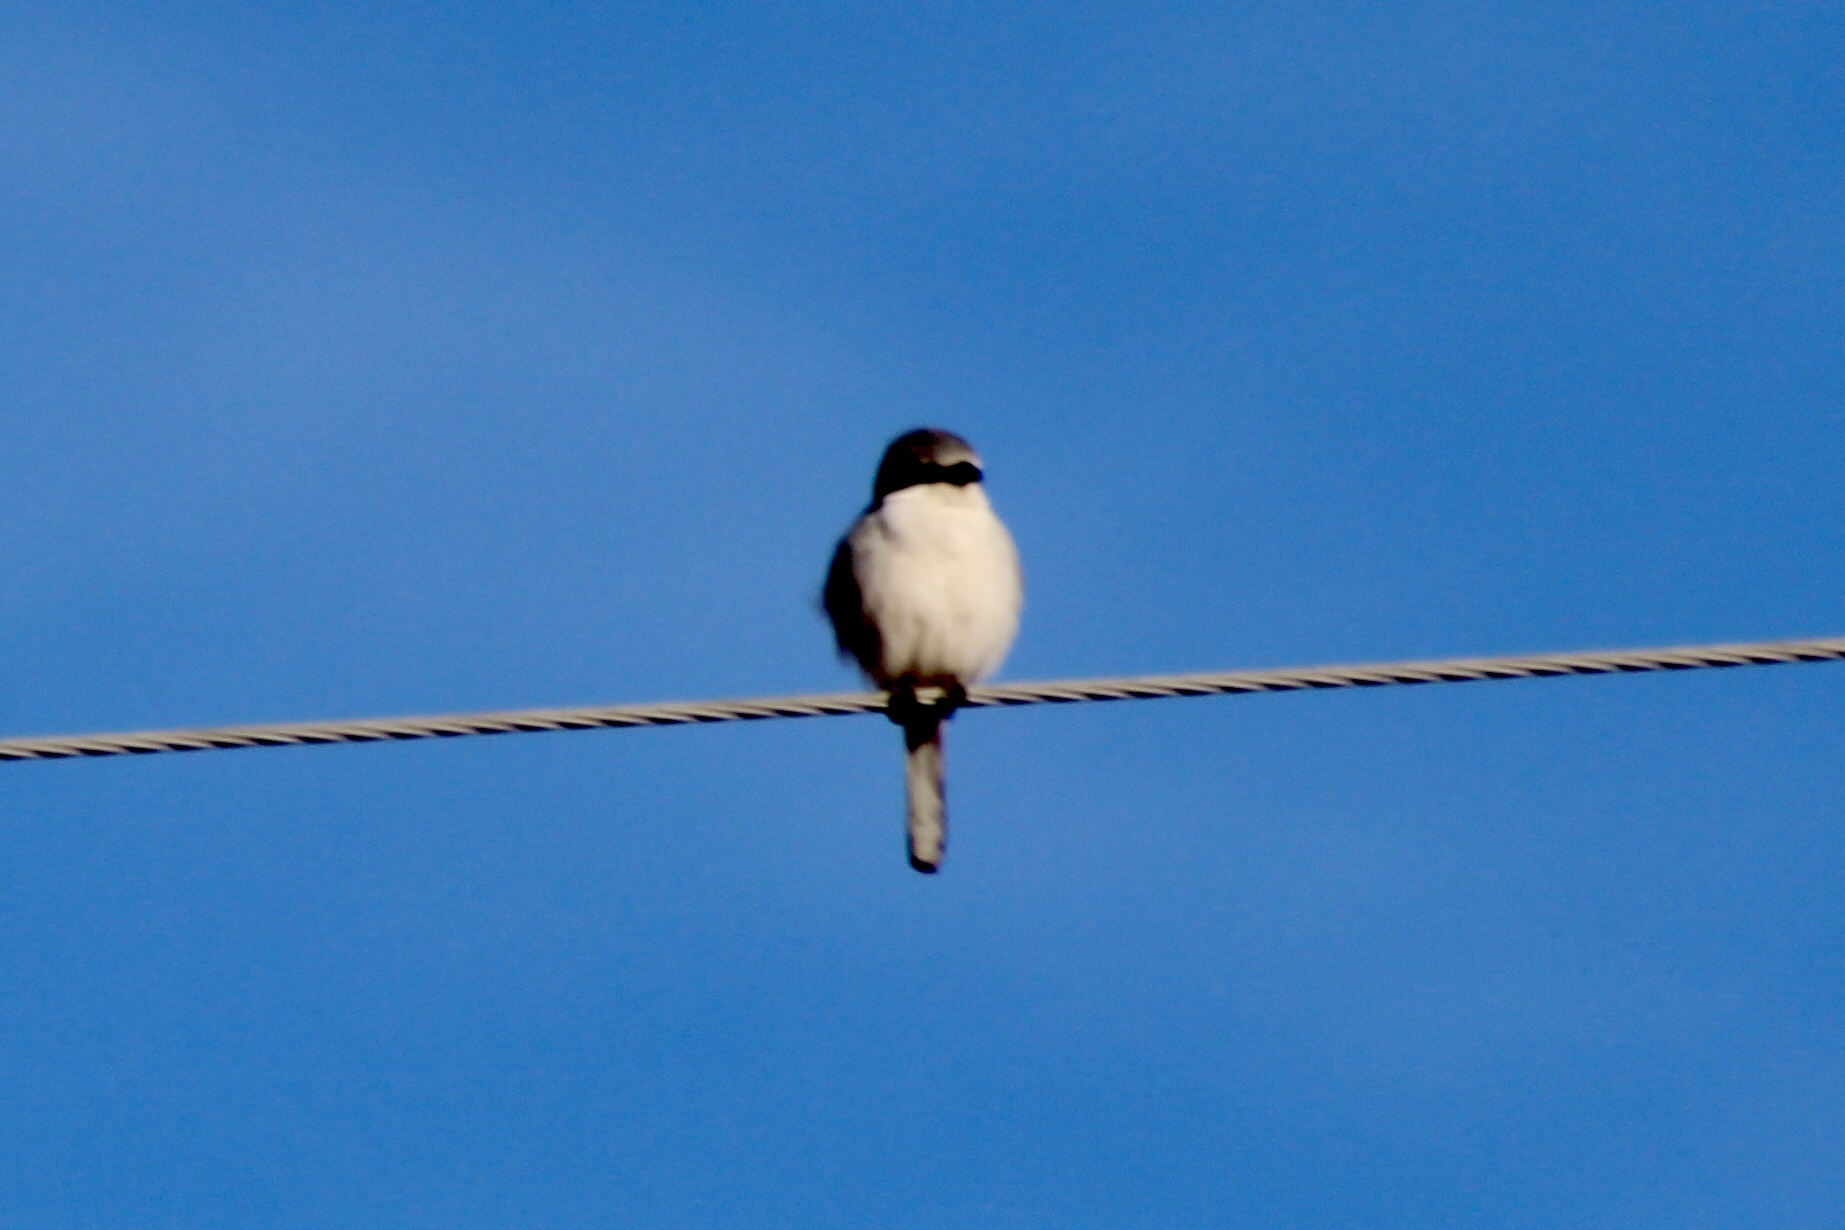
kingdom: Animalia
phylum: Chordata
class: Aves
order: Passeriformes
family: Laniidae
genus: Lanius
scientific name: Lanius ludovicianus
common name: Loggerhead shrike
